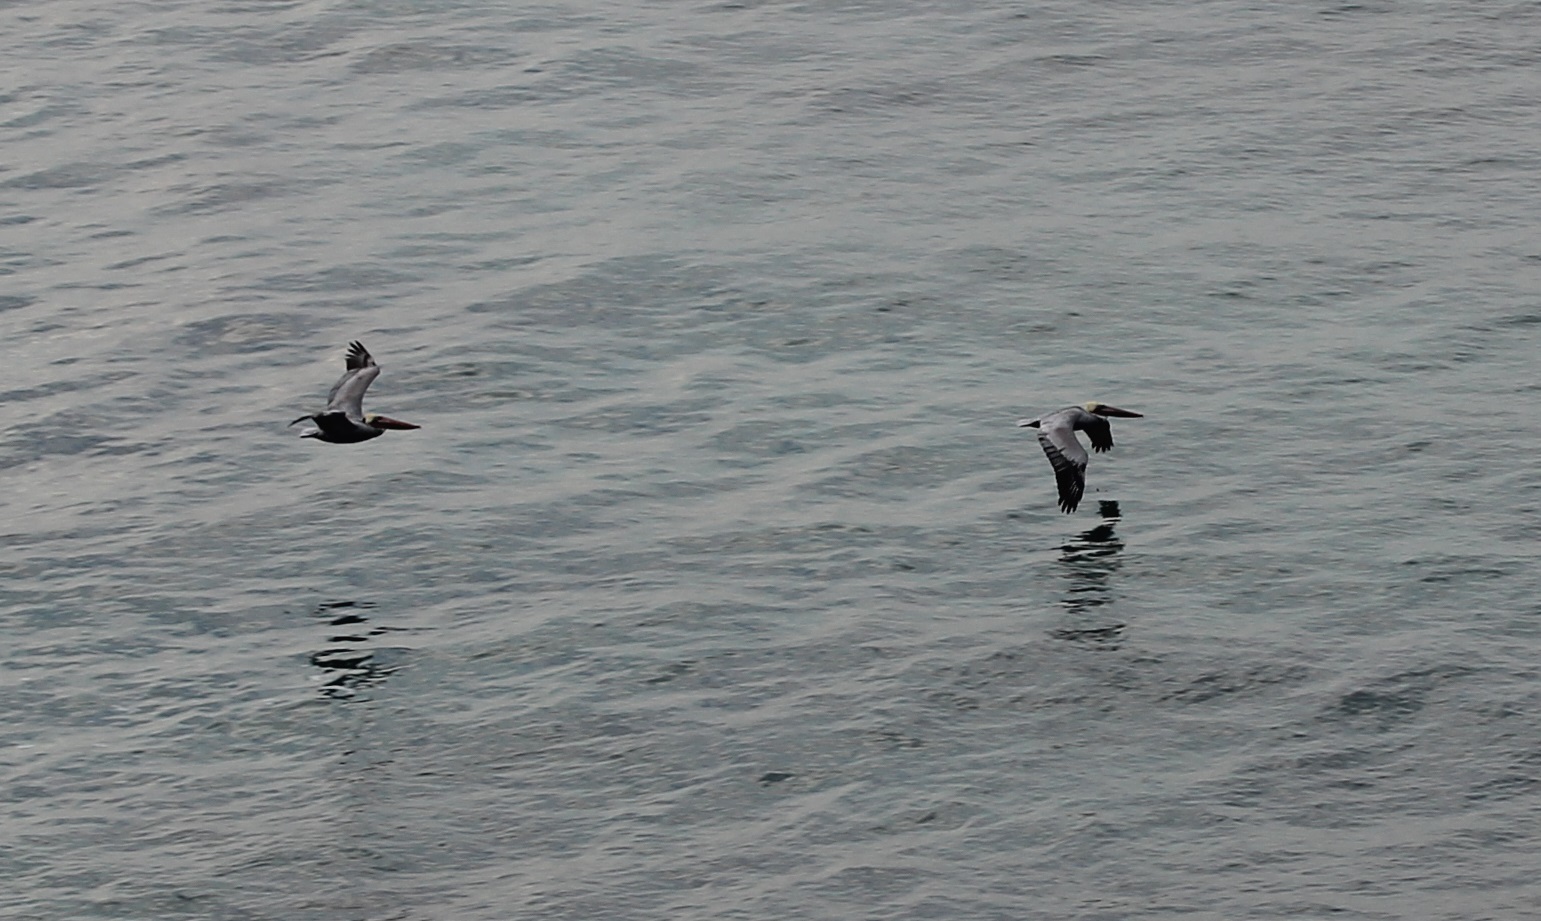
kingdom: Animalia
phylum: Chordata
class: Aves
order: Pelecaniformes
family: Pelecanidae
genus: Pelecanus
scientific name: Pelecanus occidentalis
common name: Brown pelican
